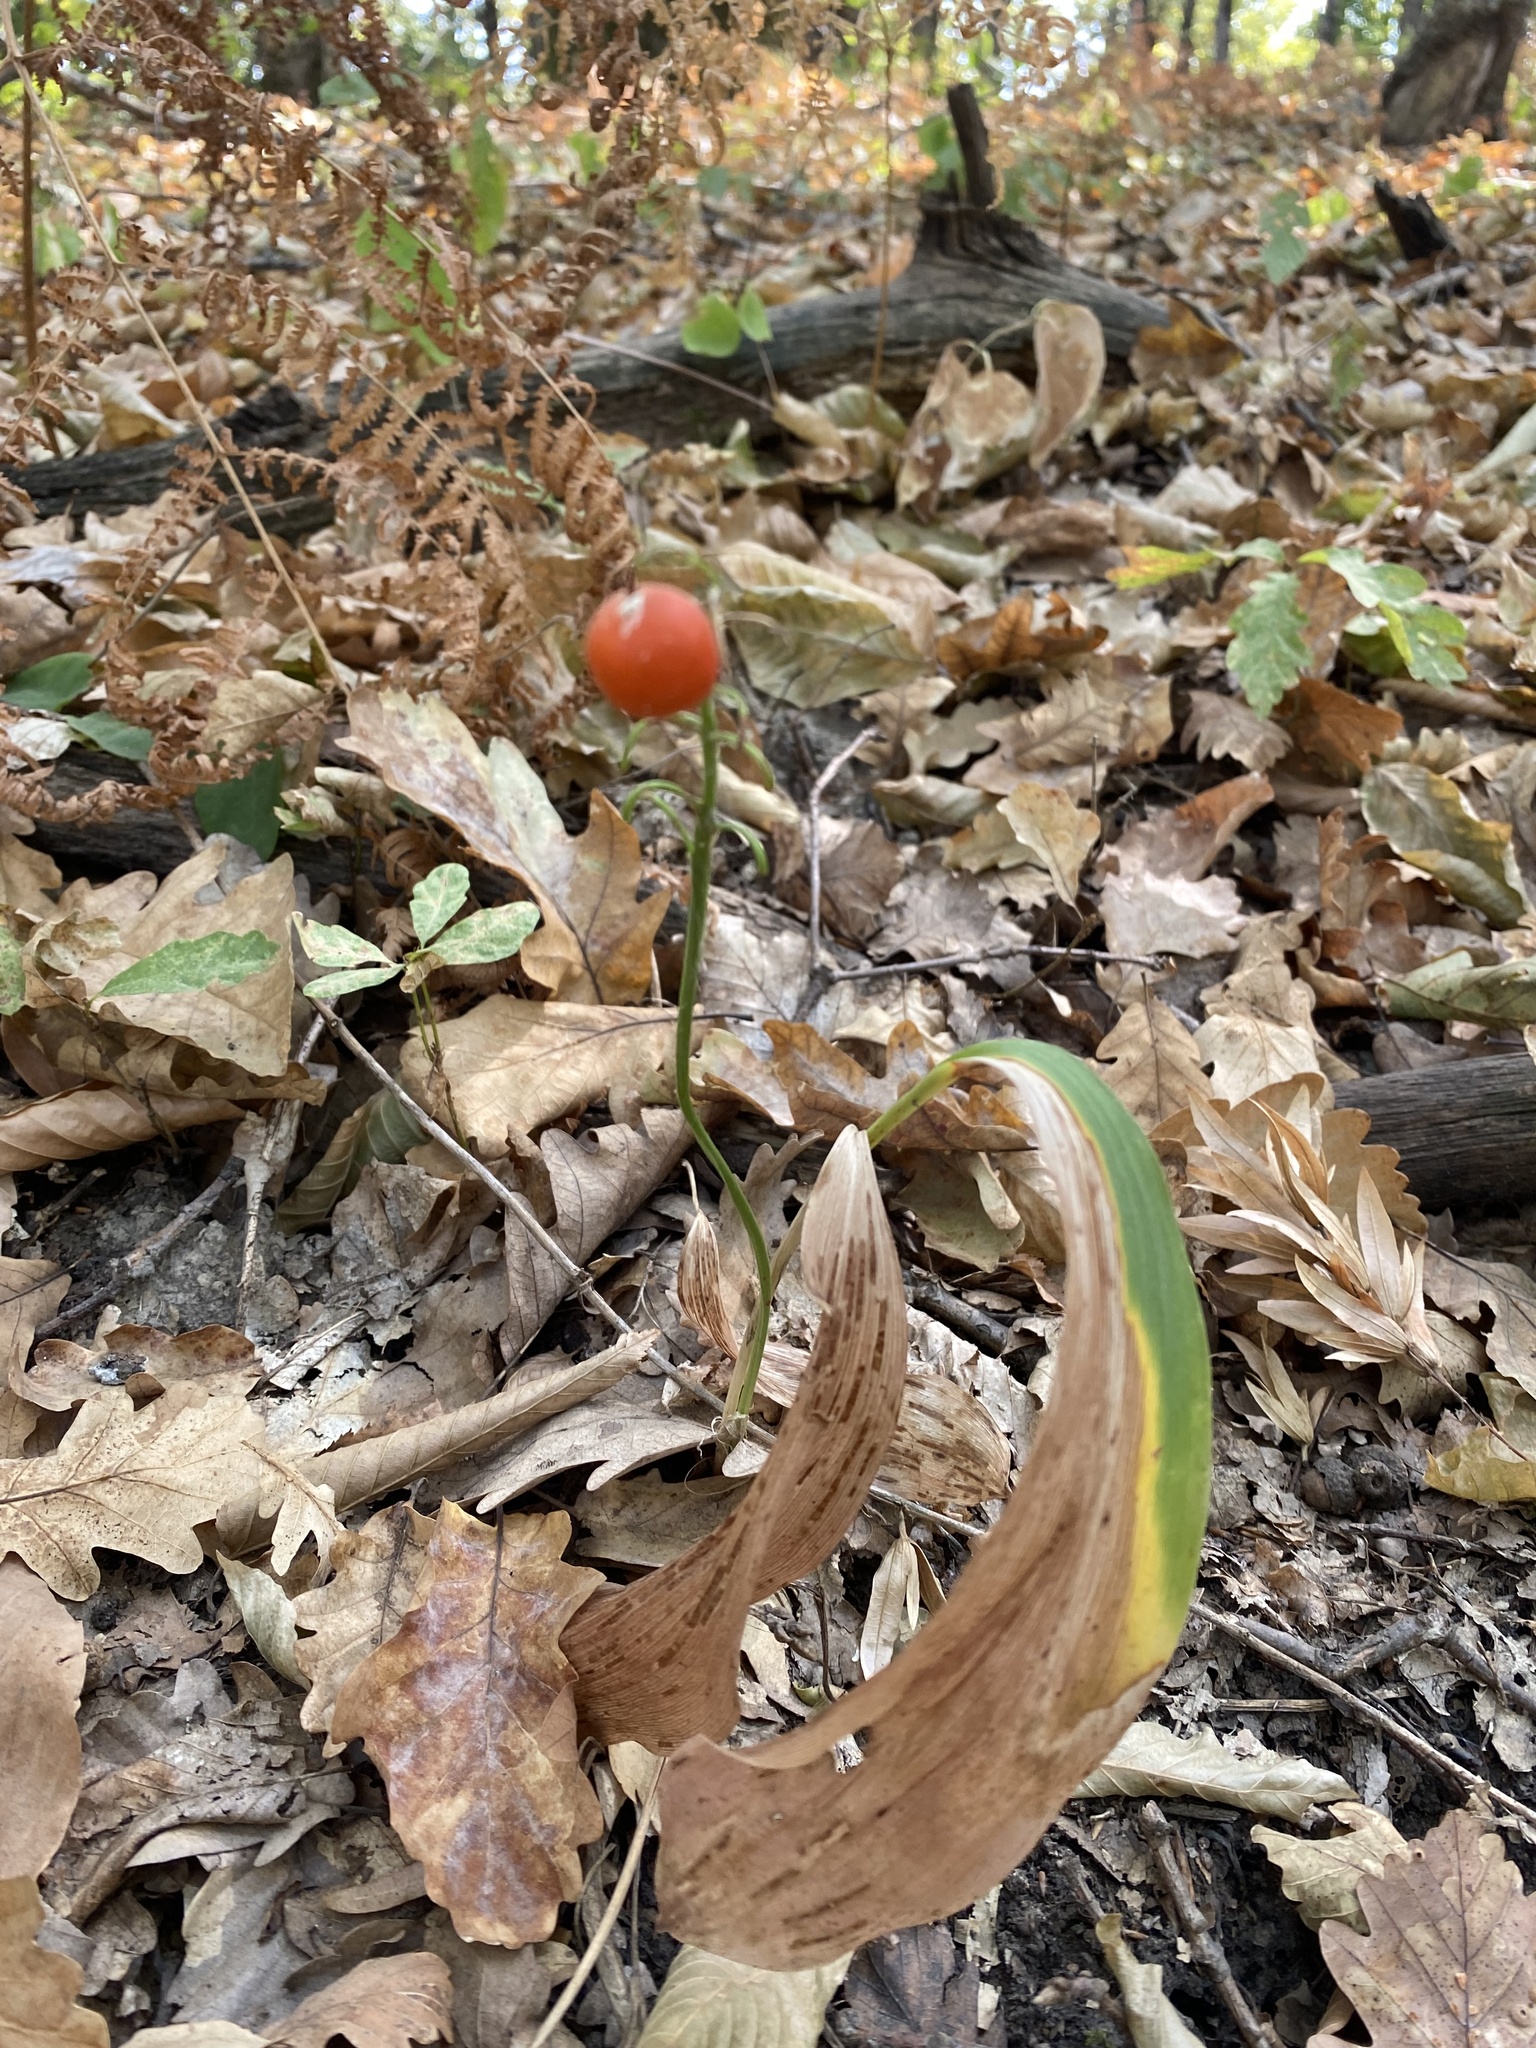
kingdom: Plantae
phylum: Tracheophyta
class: Liliopsida
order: Asparagales
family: Asparagaceae
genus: Convallaria
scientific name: Convallaria majalis
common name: Lily-of-the-valley
